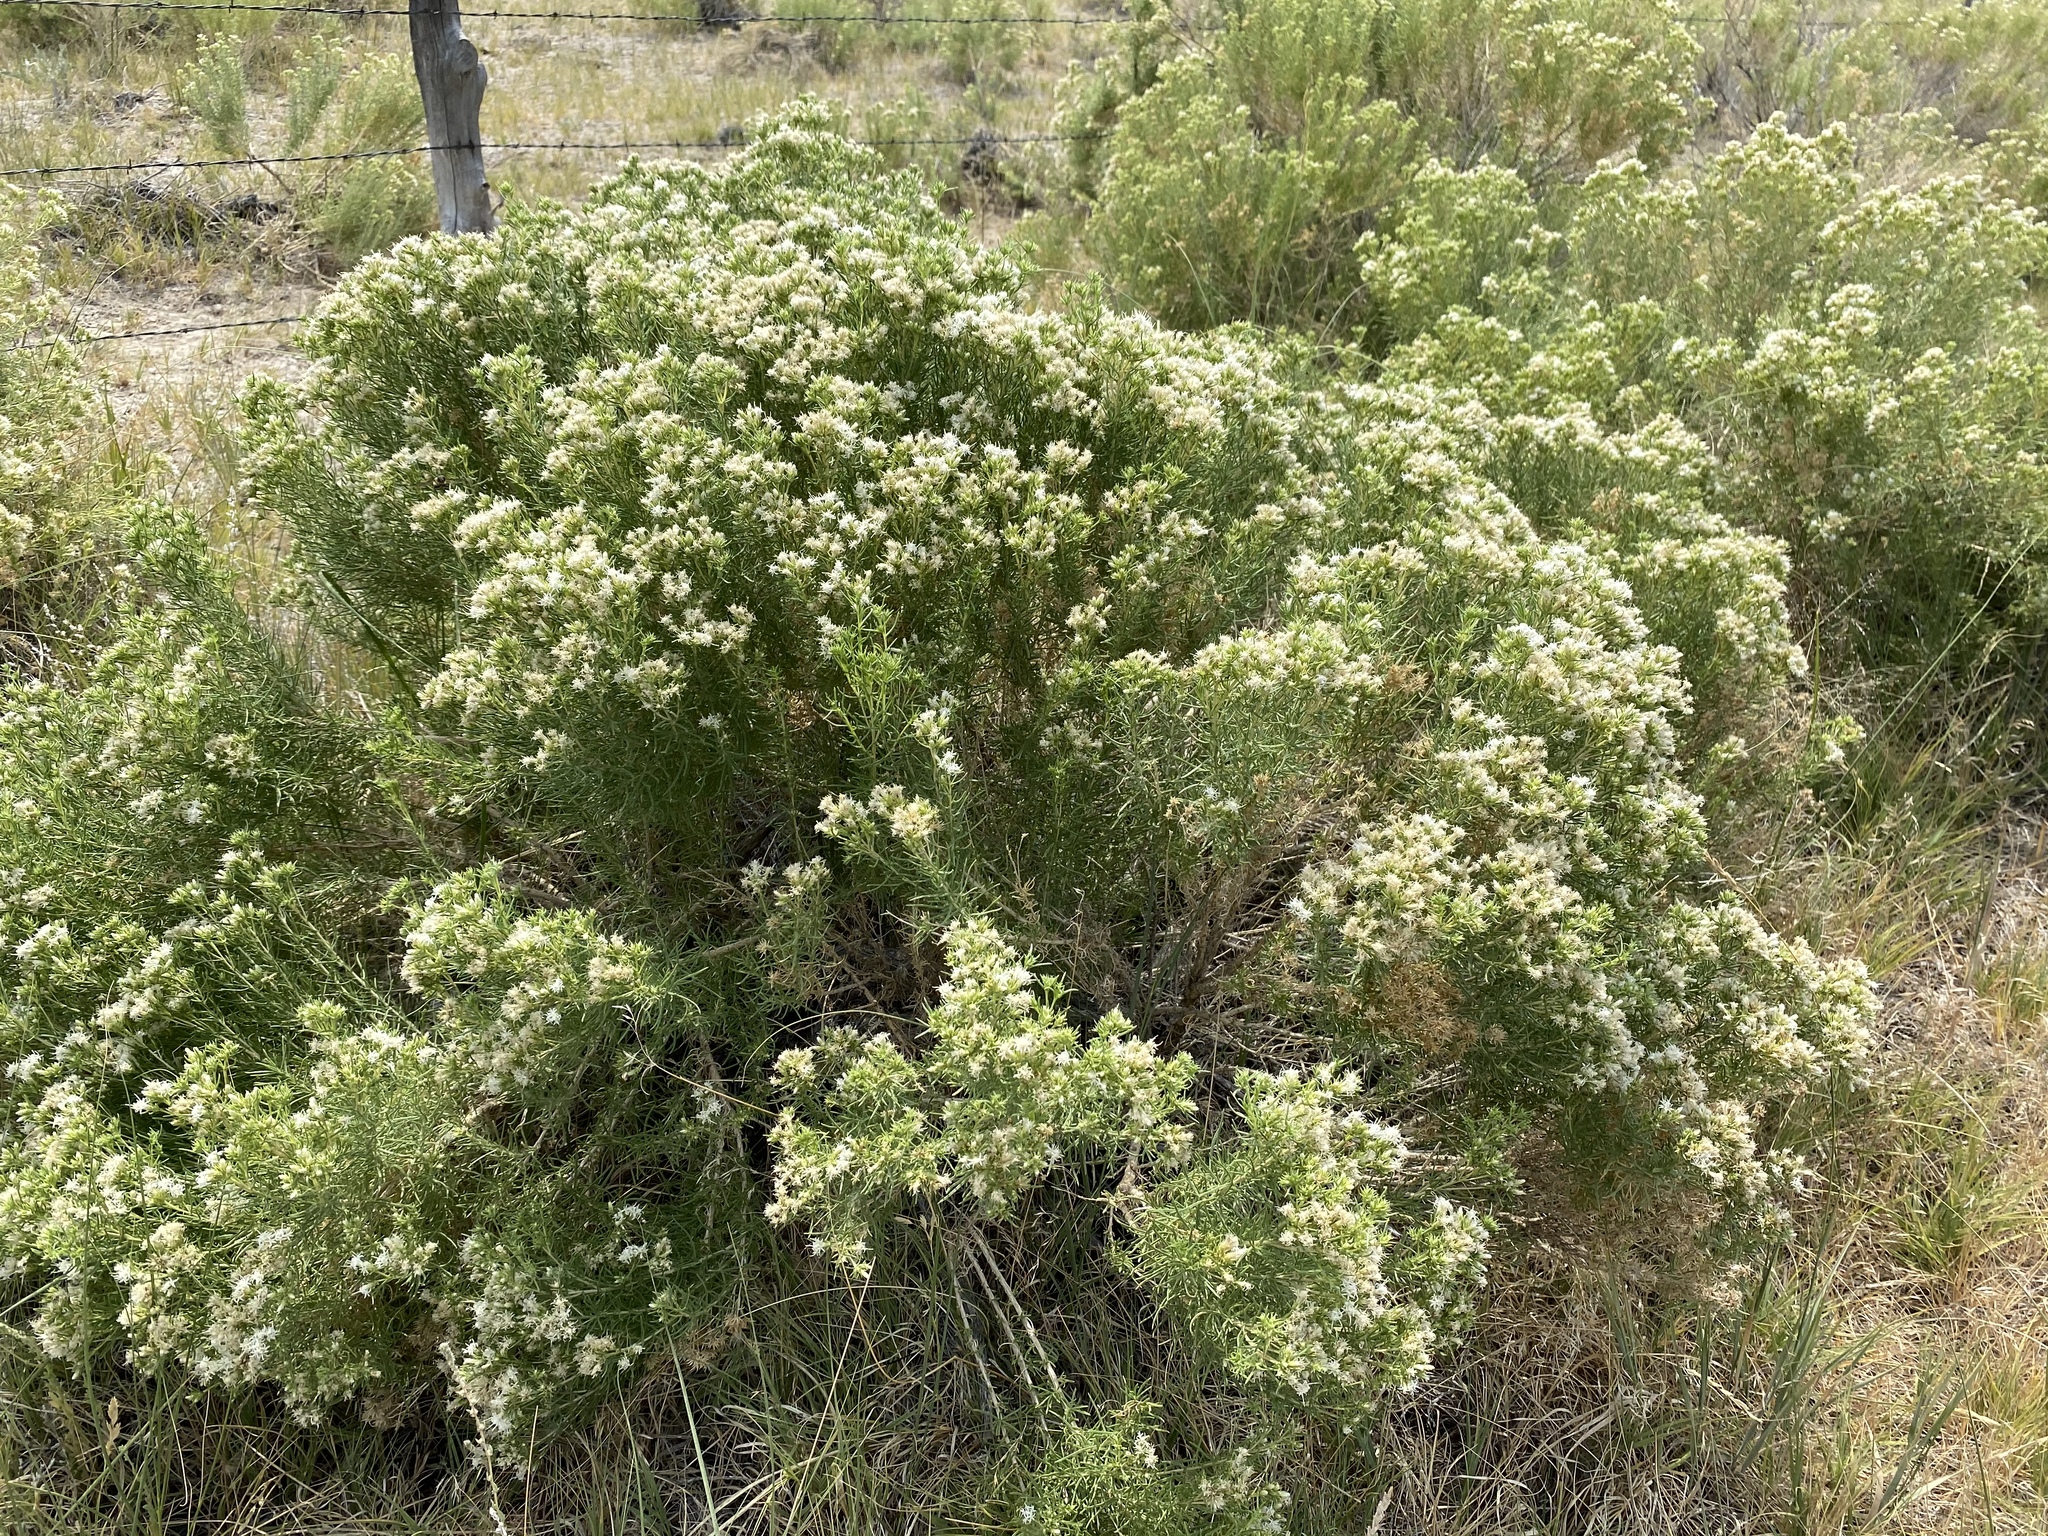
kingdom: Plantae
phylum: Tracheophyta
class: Magnoliopsida
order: Asterales
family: Asteraceae
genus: Ericameria
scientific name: Ericameria albida
